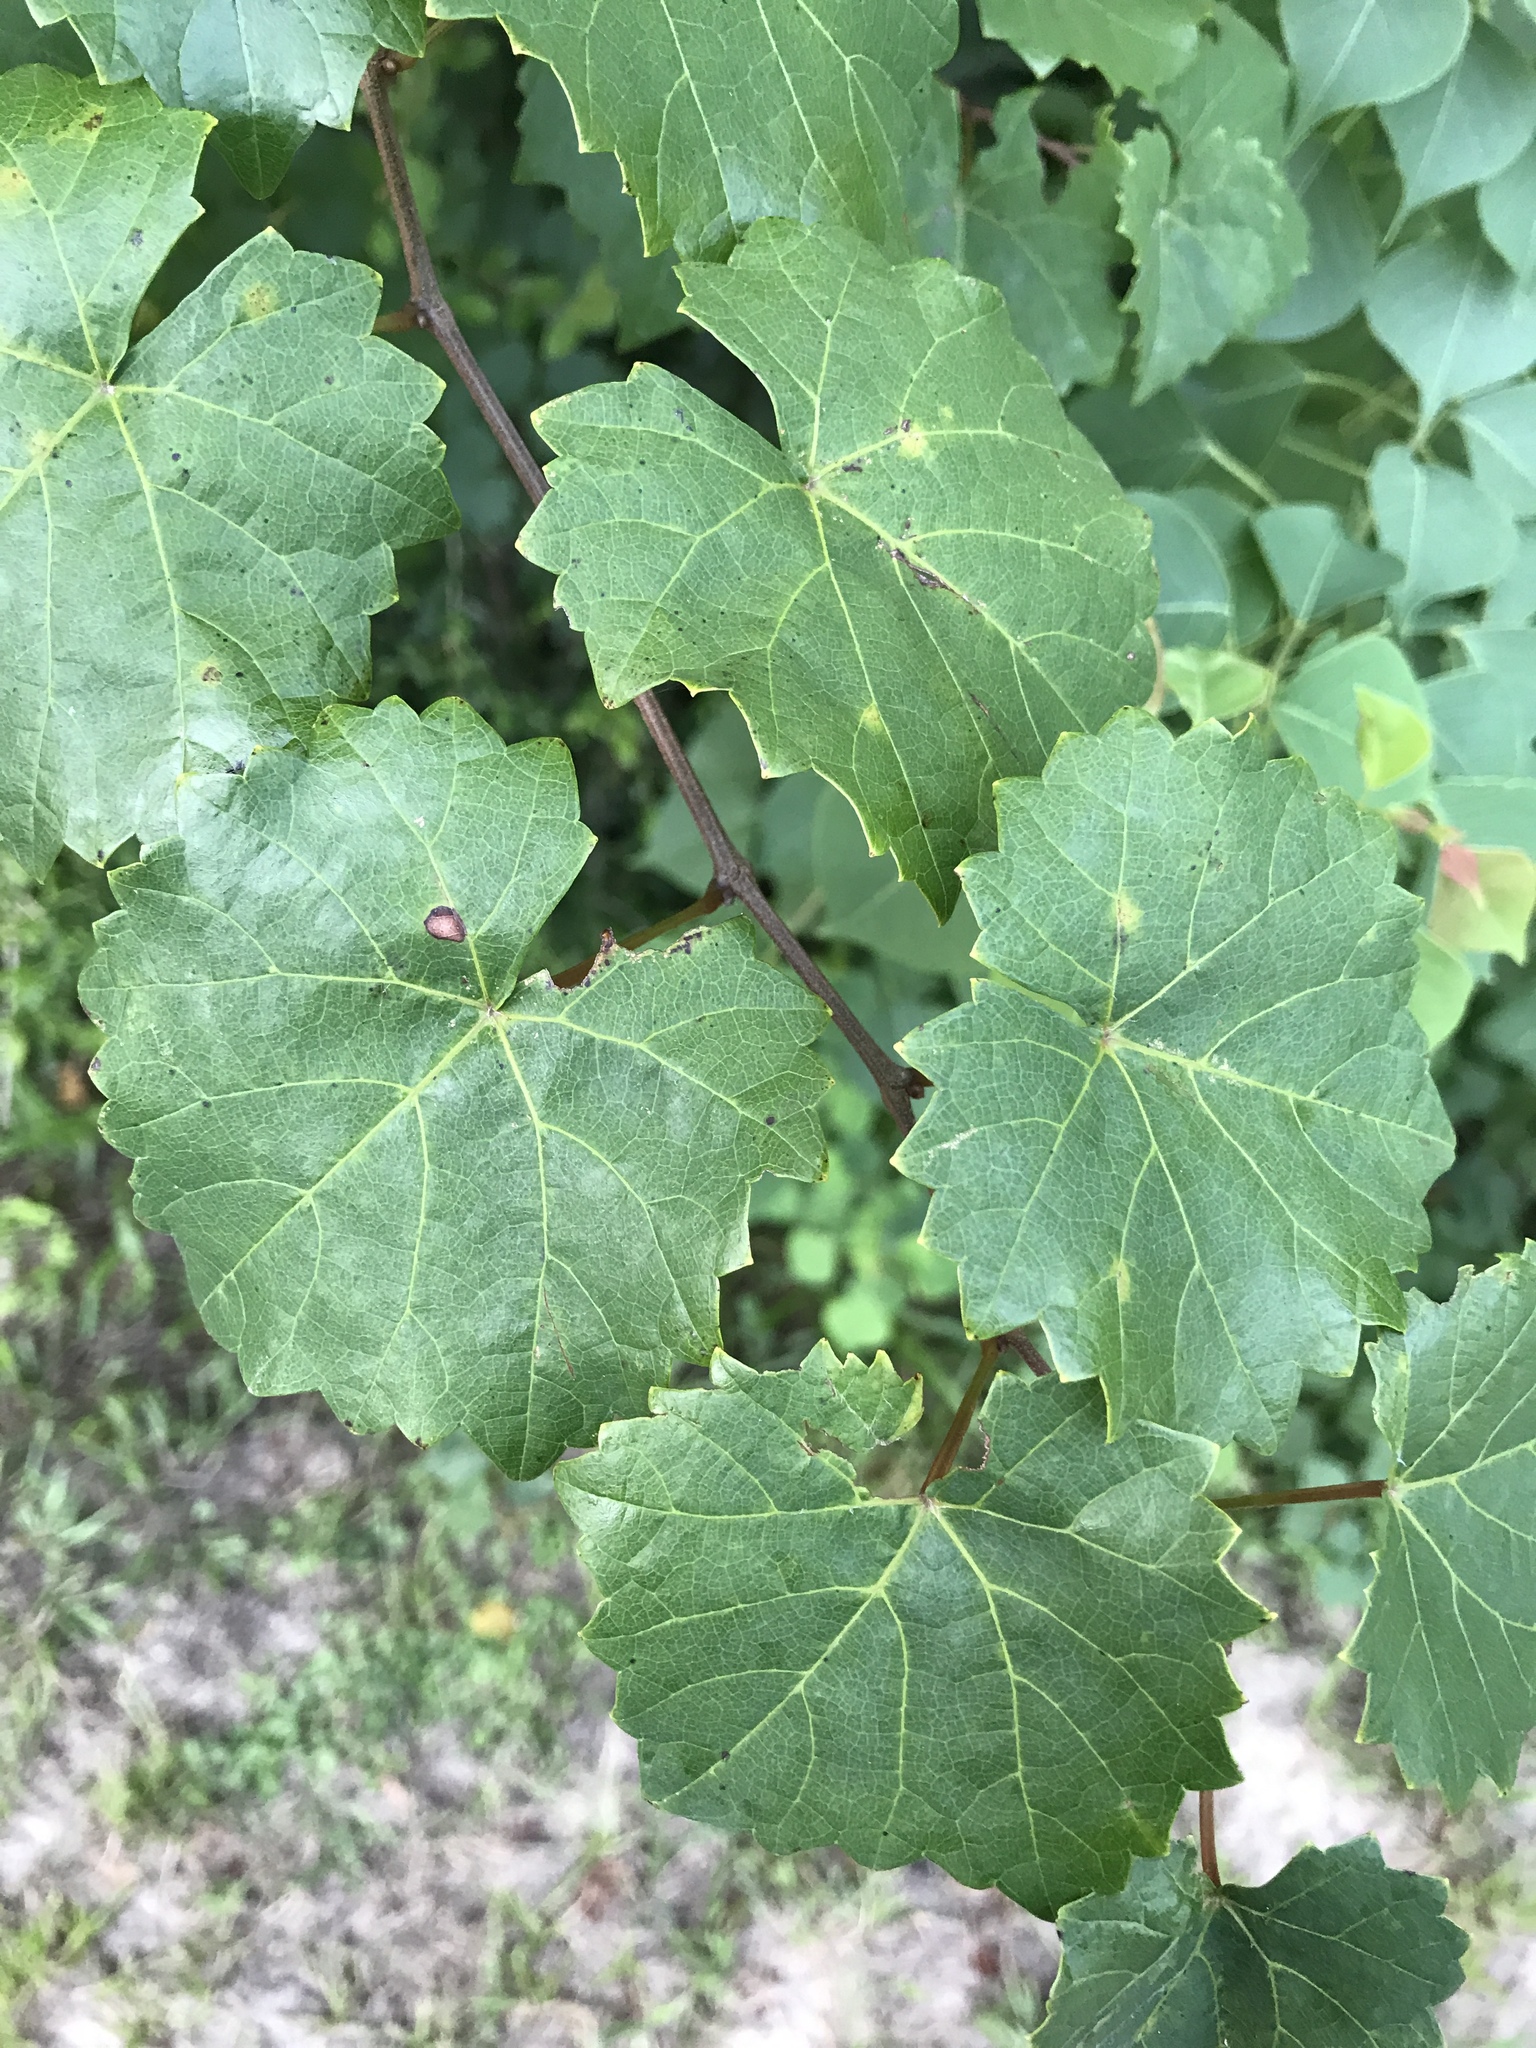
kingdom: Plantae
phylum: Tracheophyta
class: Magnoliopsida
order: Vitales
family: Vitaceae
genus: Vitis
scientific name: Vitis rotundifolia
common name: Muscadine grape
